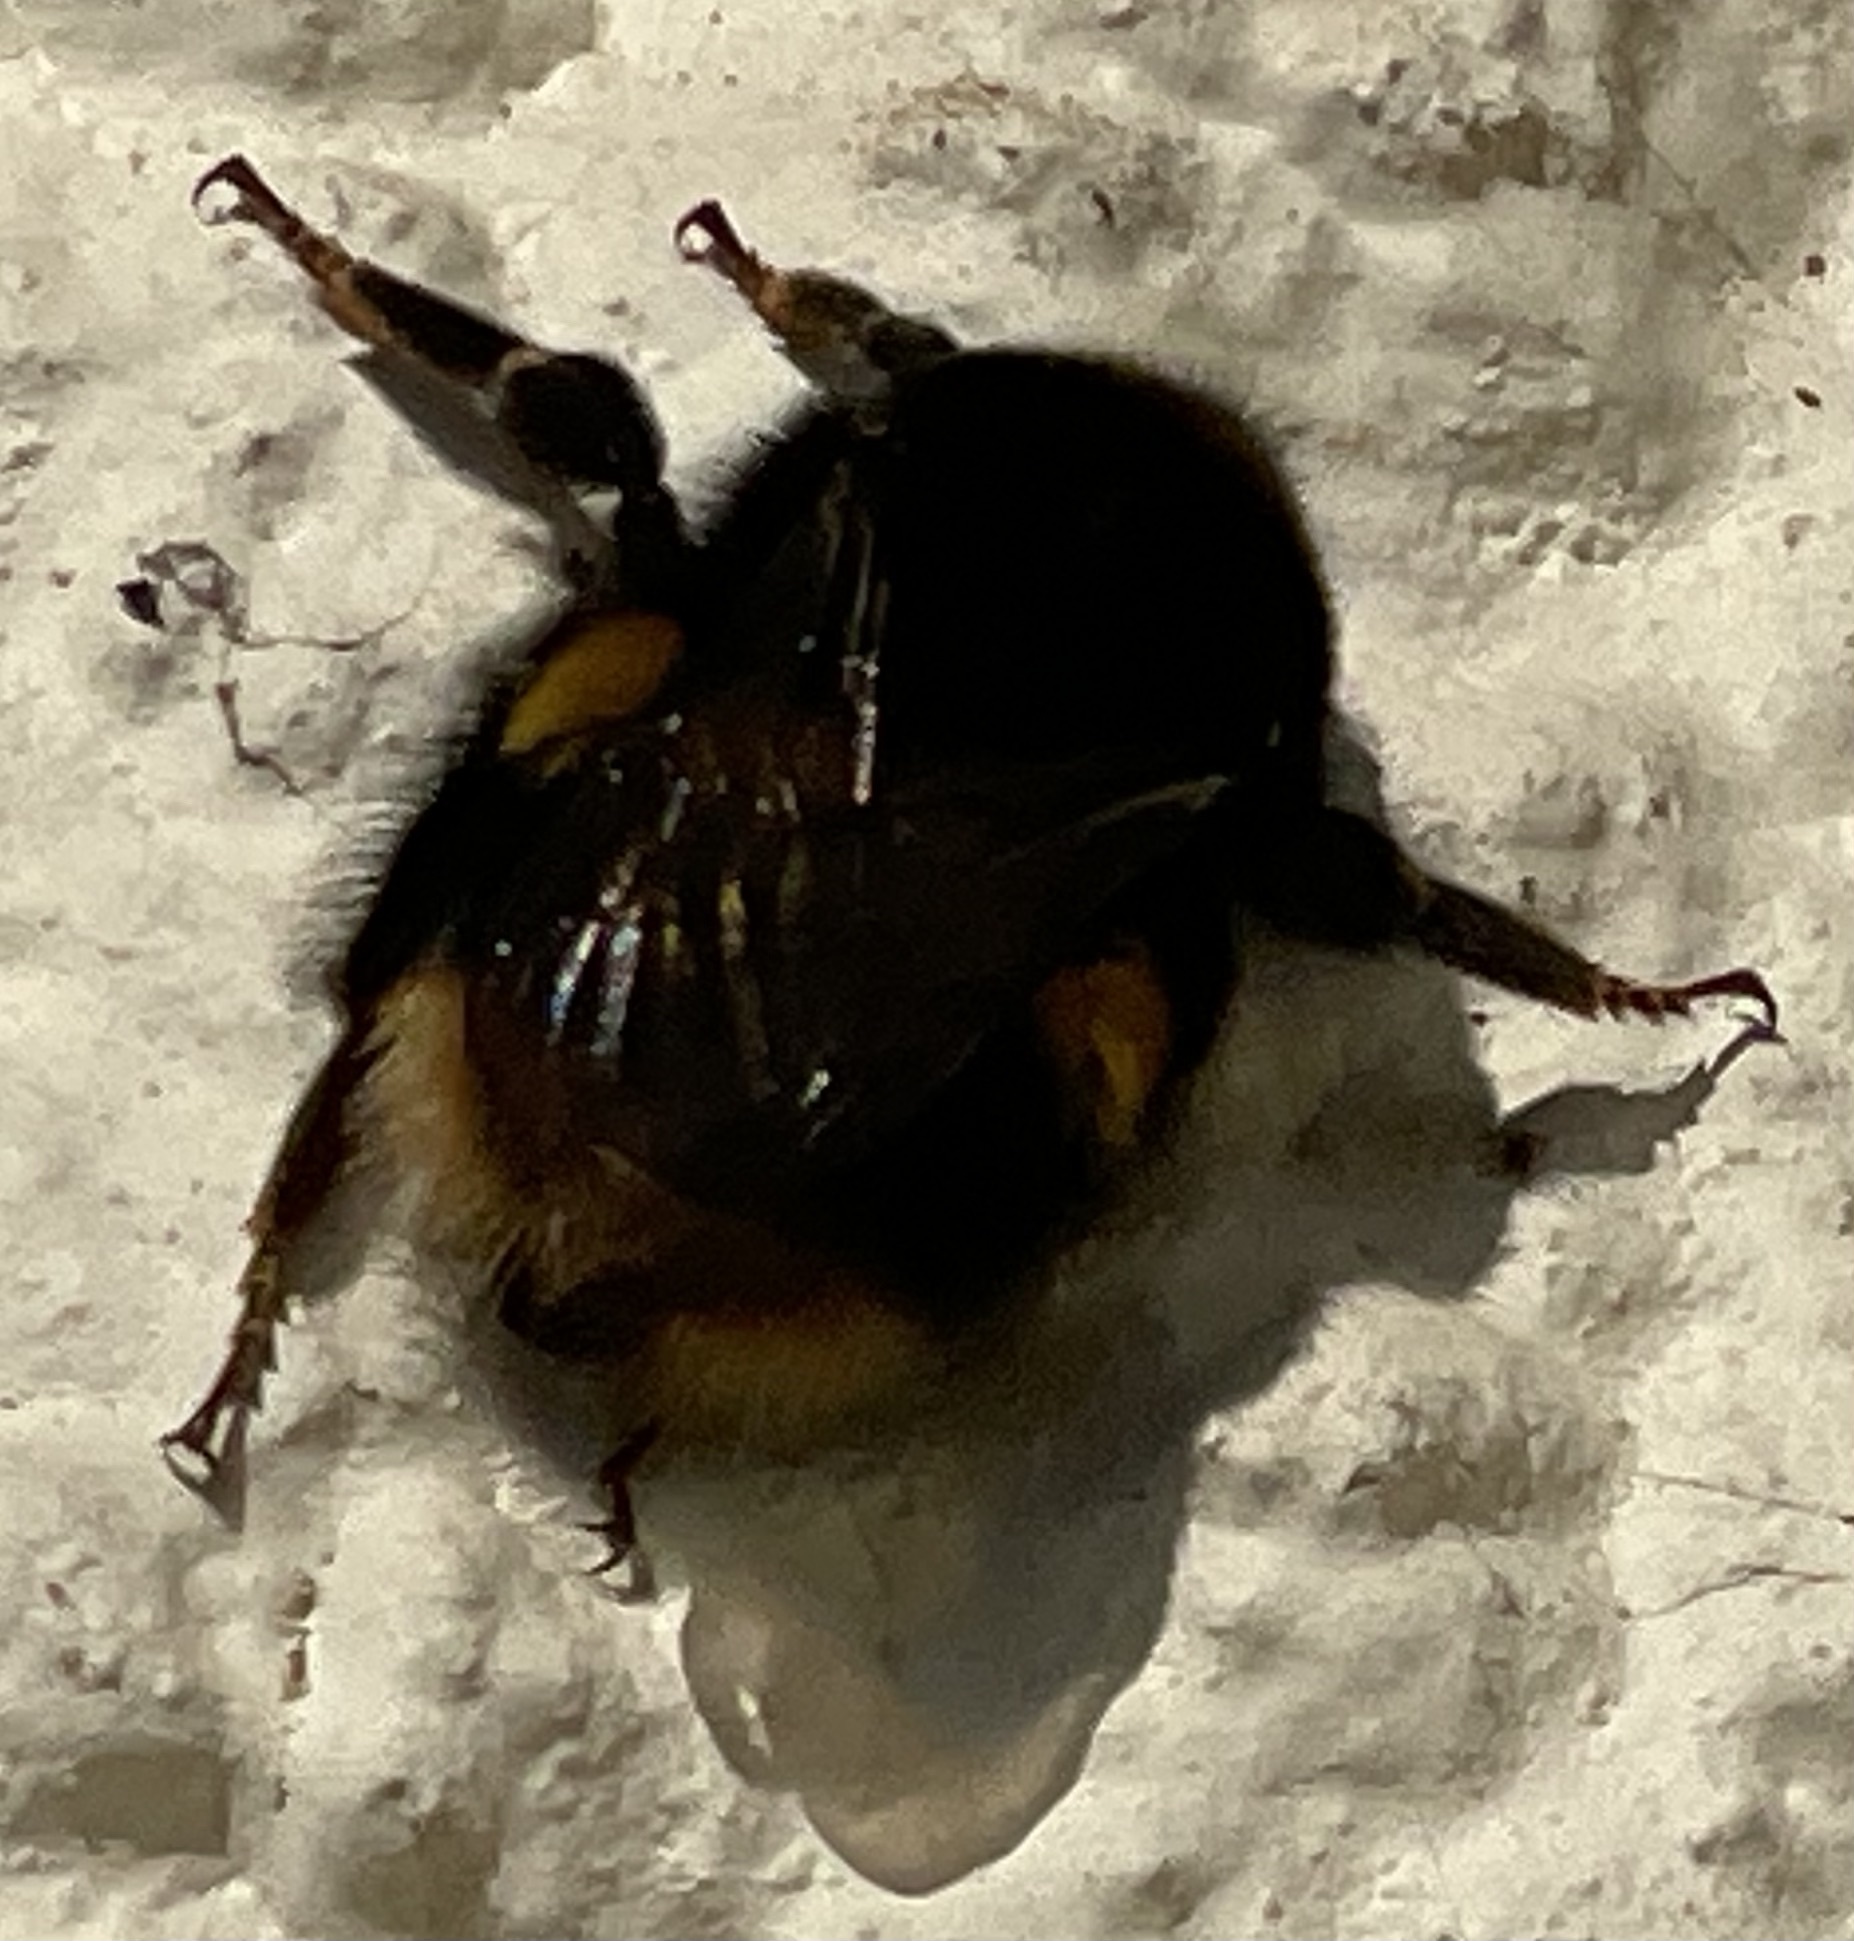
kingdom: Animalia
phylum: Arthropoda
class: Insecta
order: Hymenoptera
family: Apidae
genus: Bombus
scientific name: Bombus terrestris
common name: Buff-tailed bumblebee
